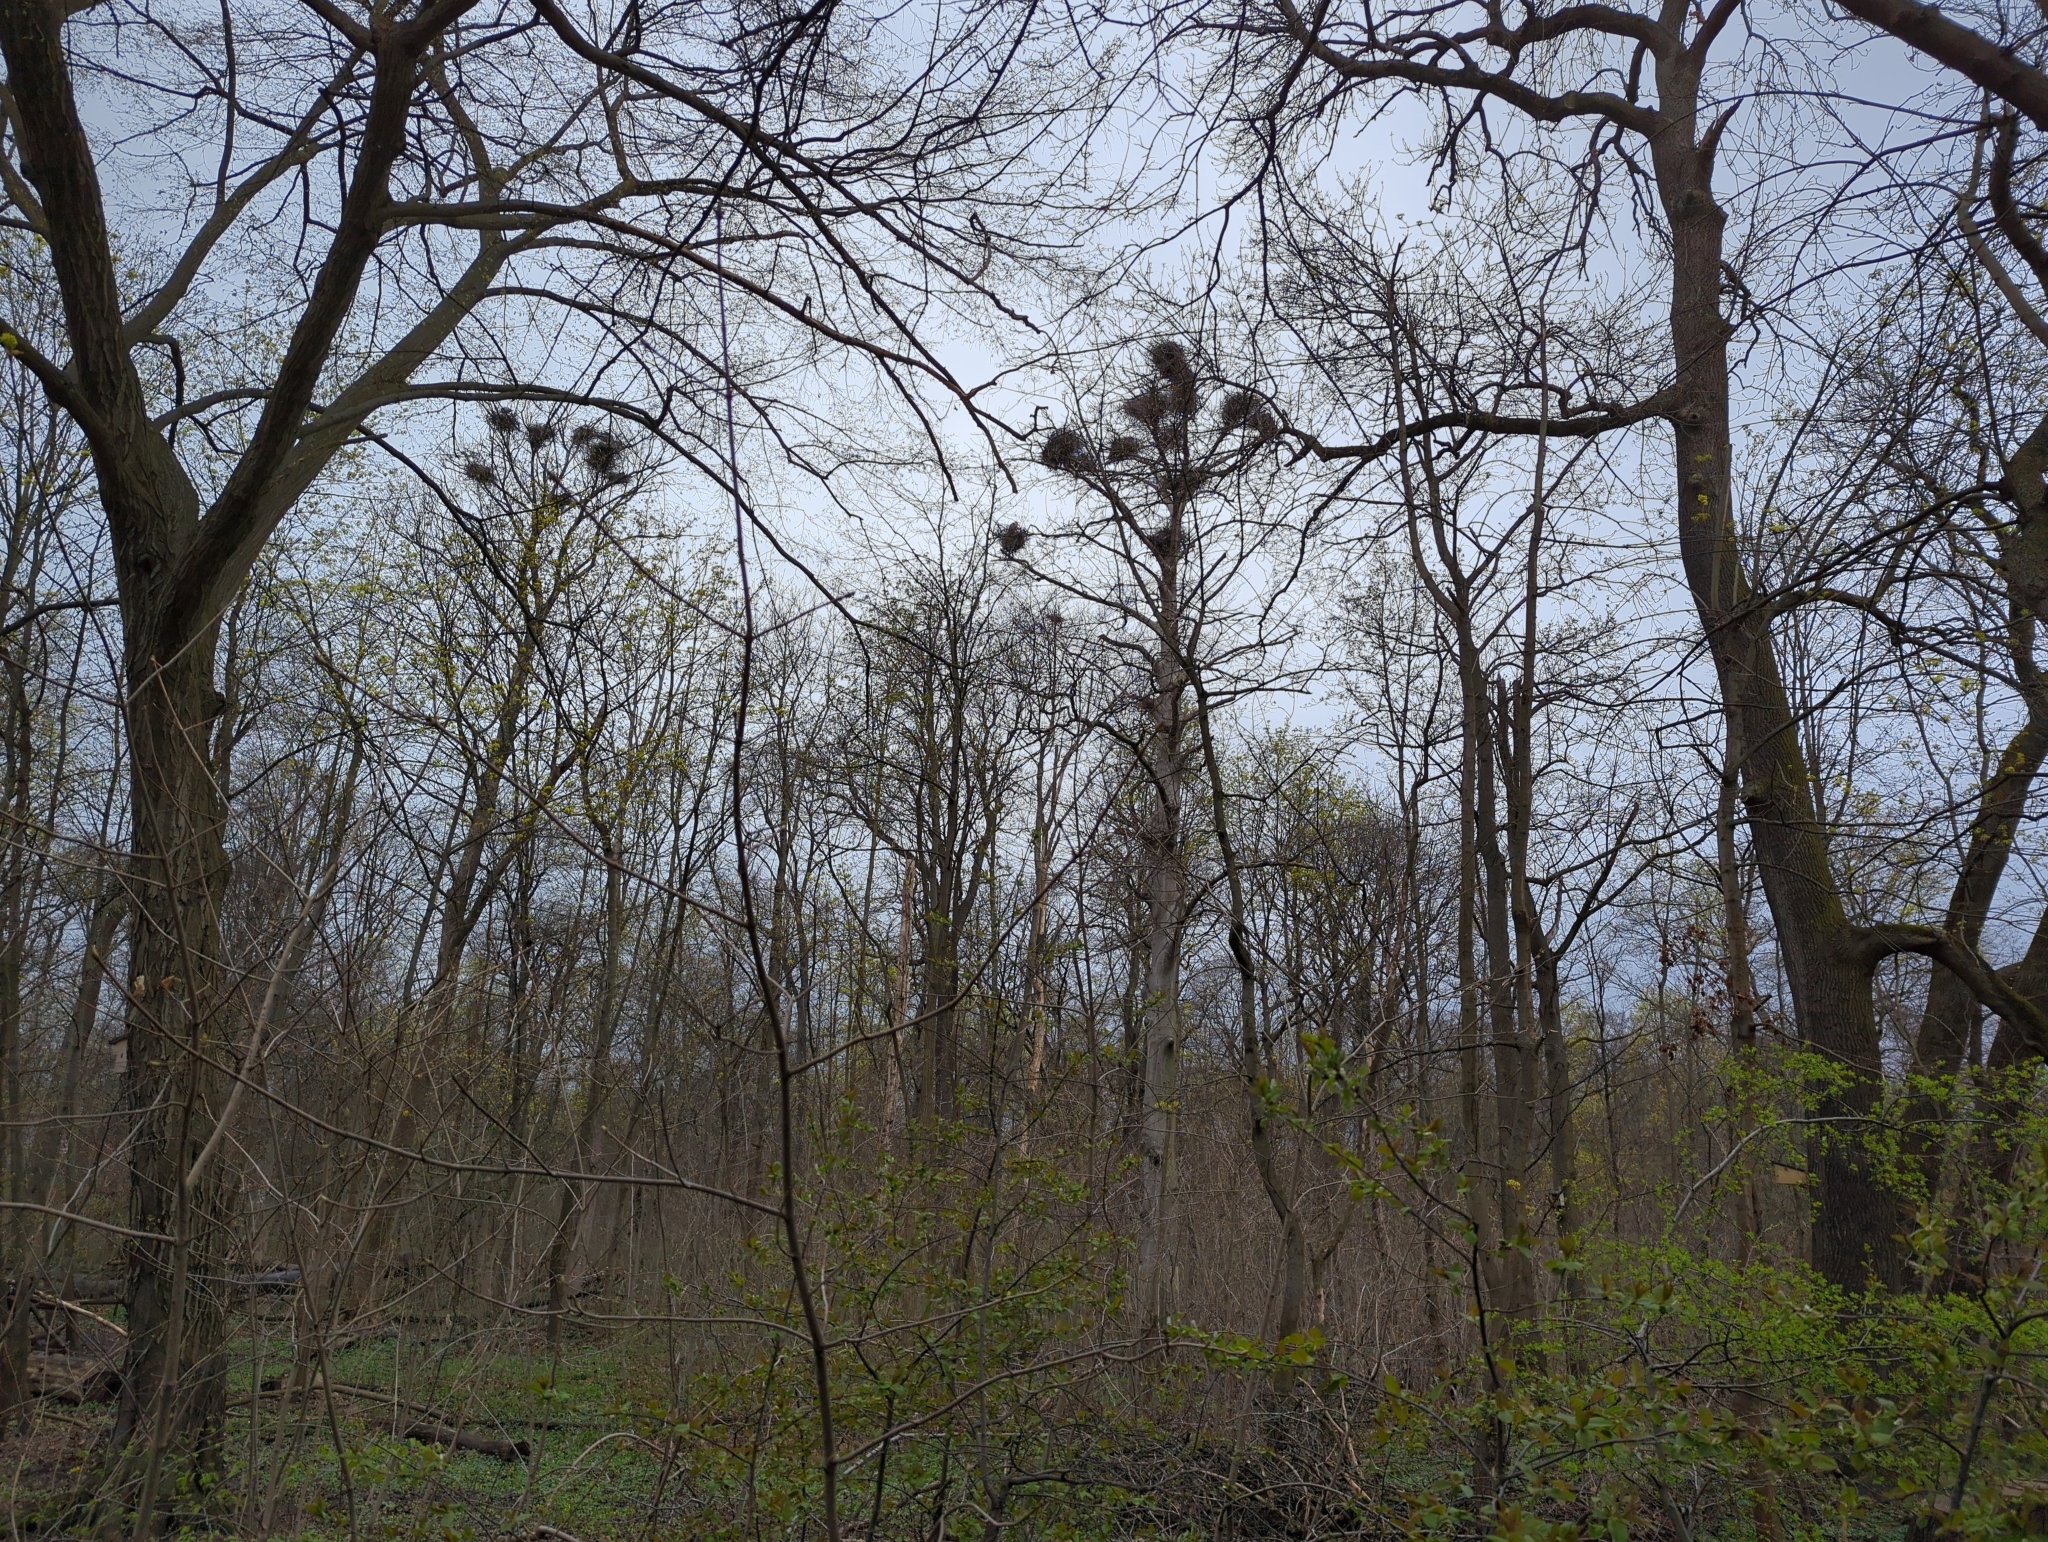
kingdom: Animalia
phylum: Chordata
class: Aves
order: Pelecaniformes
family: Ardeidae
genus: Ardea
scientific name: Ardea cinerea
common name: Grey heron
